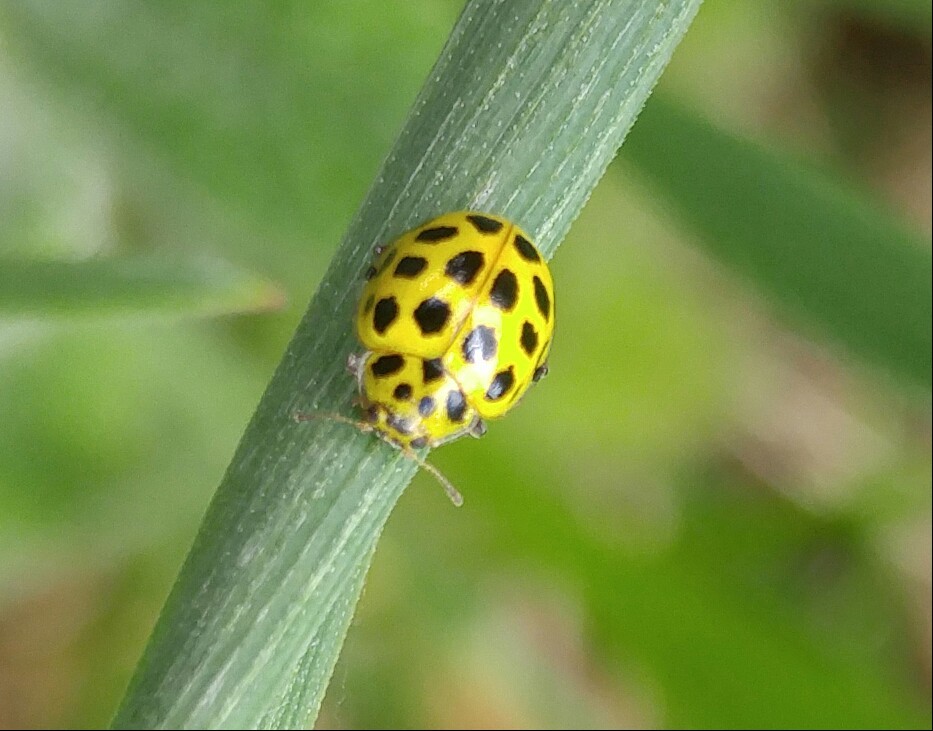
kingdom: Animalia
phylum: Arthropoda
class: Insecta
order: Coleoptera
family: Coccinellidae
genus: Psyllobora
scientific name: Psyllobora vigintiduopunctata
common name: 22-spot ladybird
